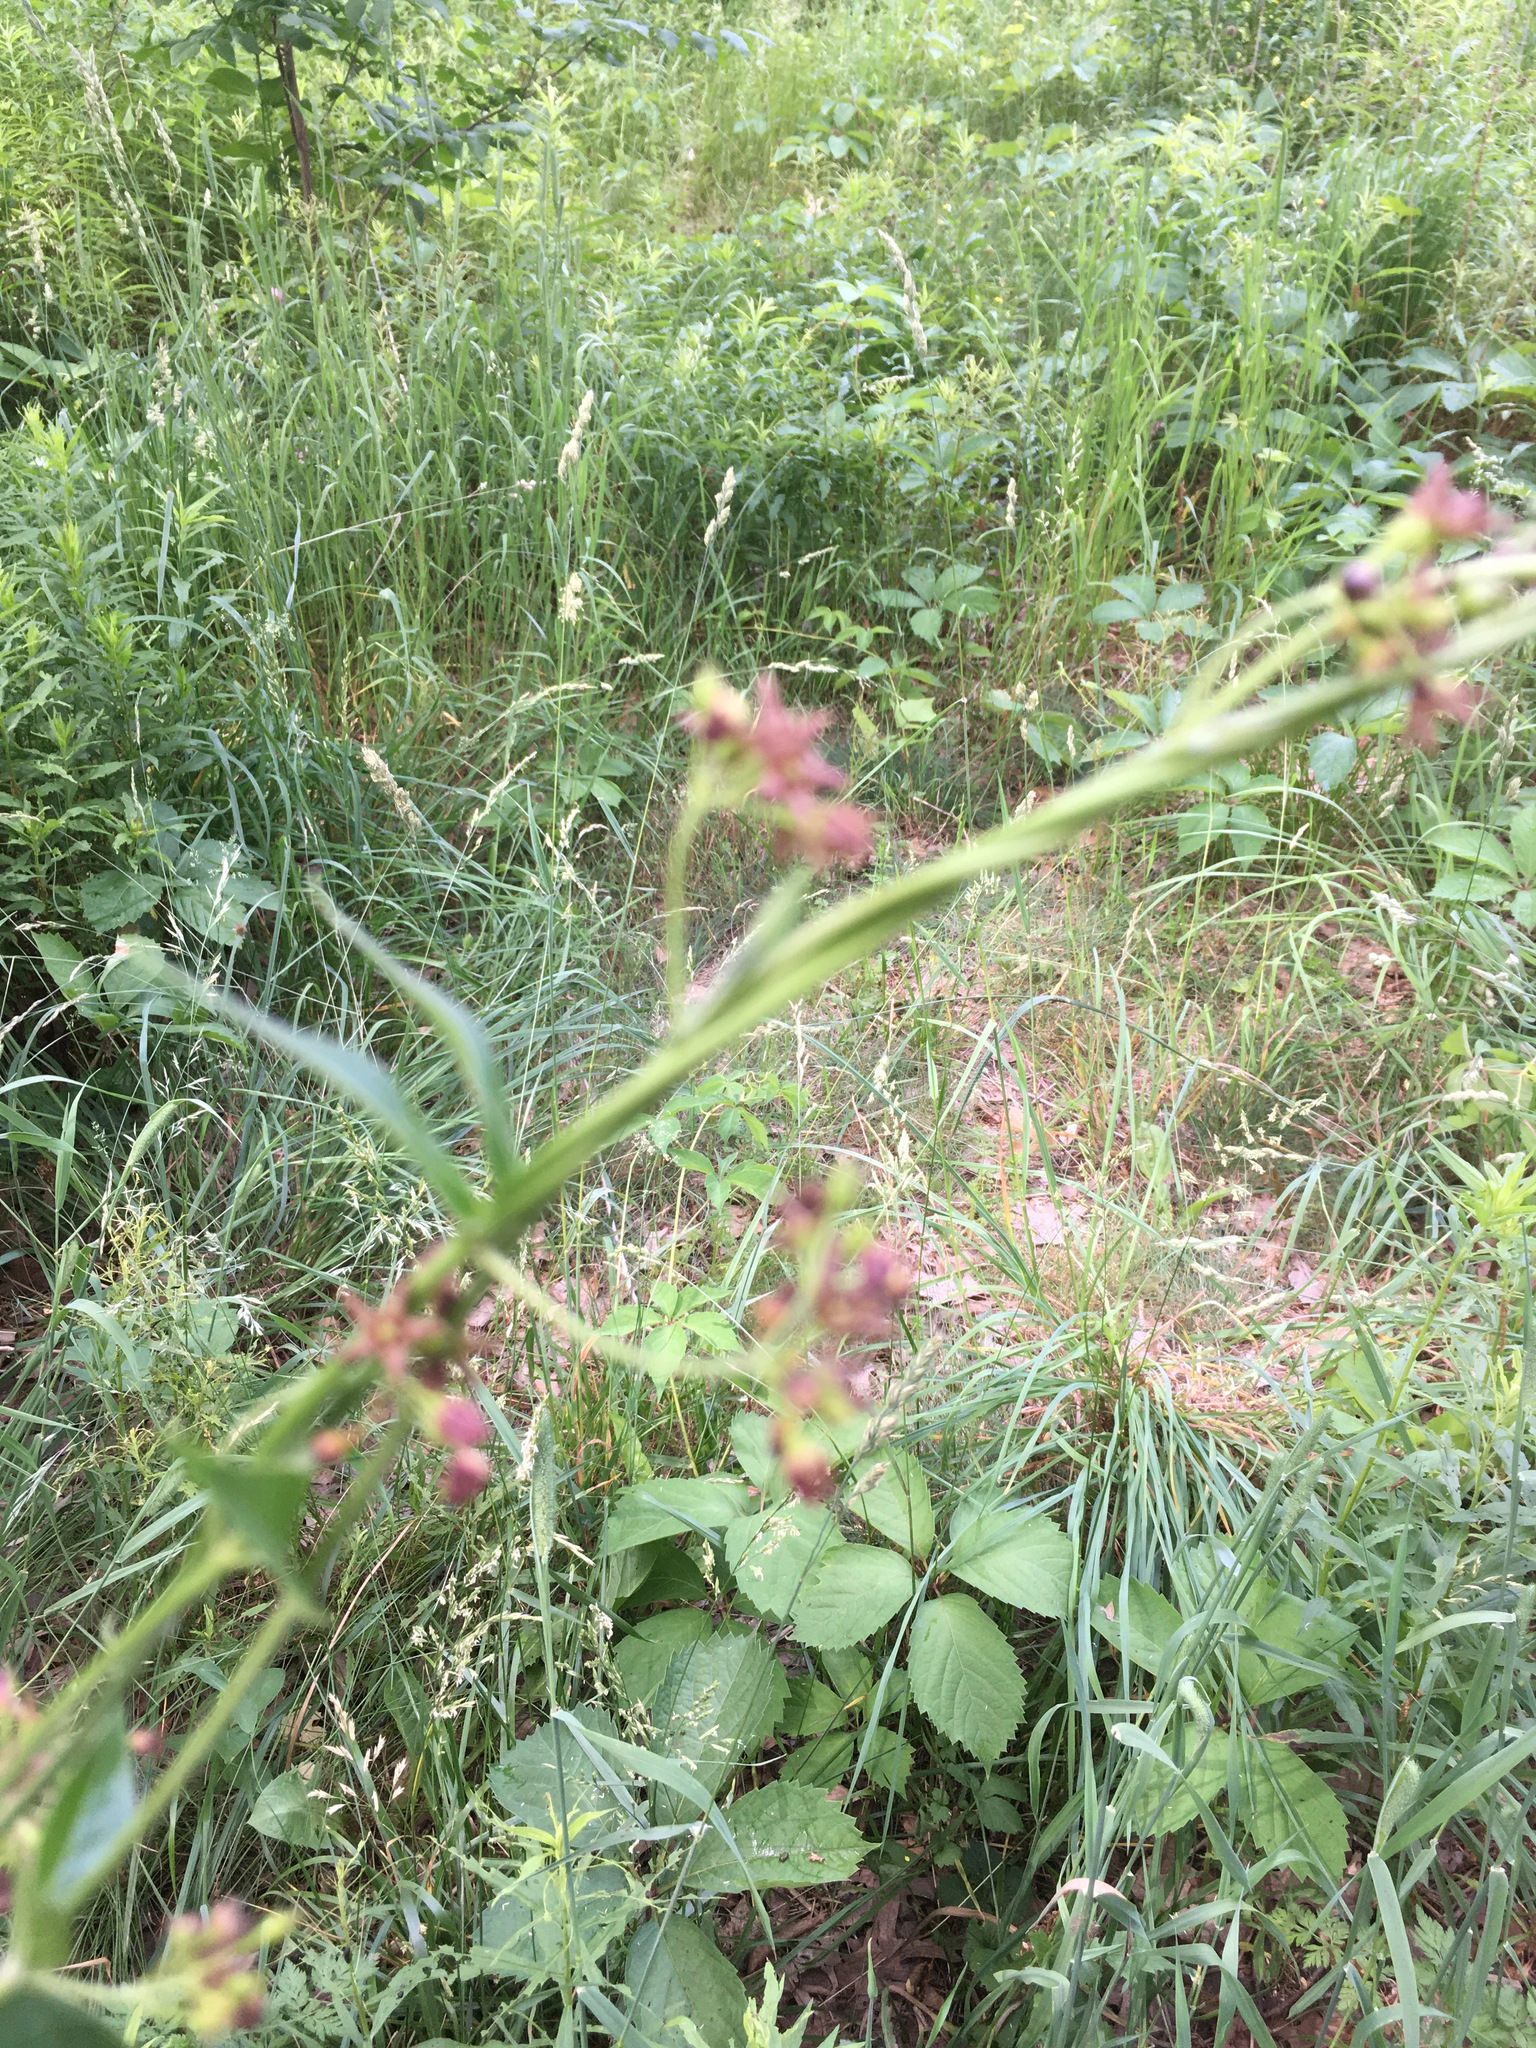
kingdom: Plantae
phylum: Tracheophyta
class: Magnoliopsida
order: Gentianales
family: Apocynaceae
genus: Vincetoxicum
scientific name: Vincetoxicum rossicum
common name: Dog-strangling vine
